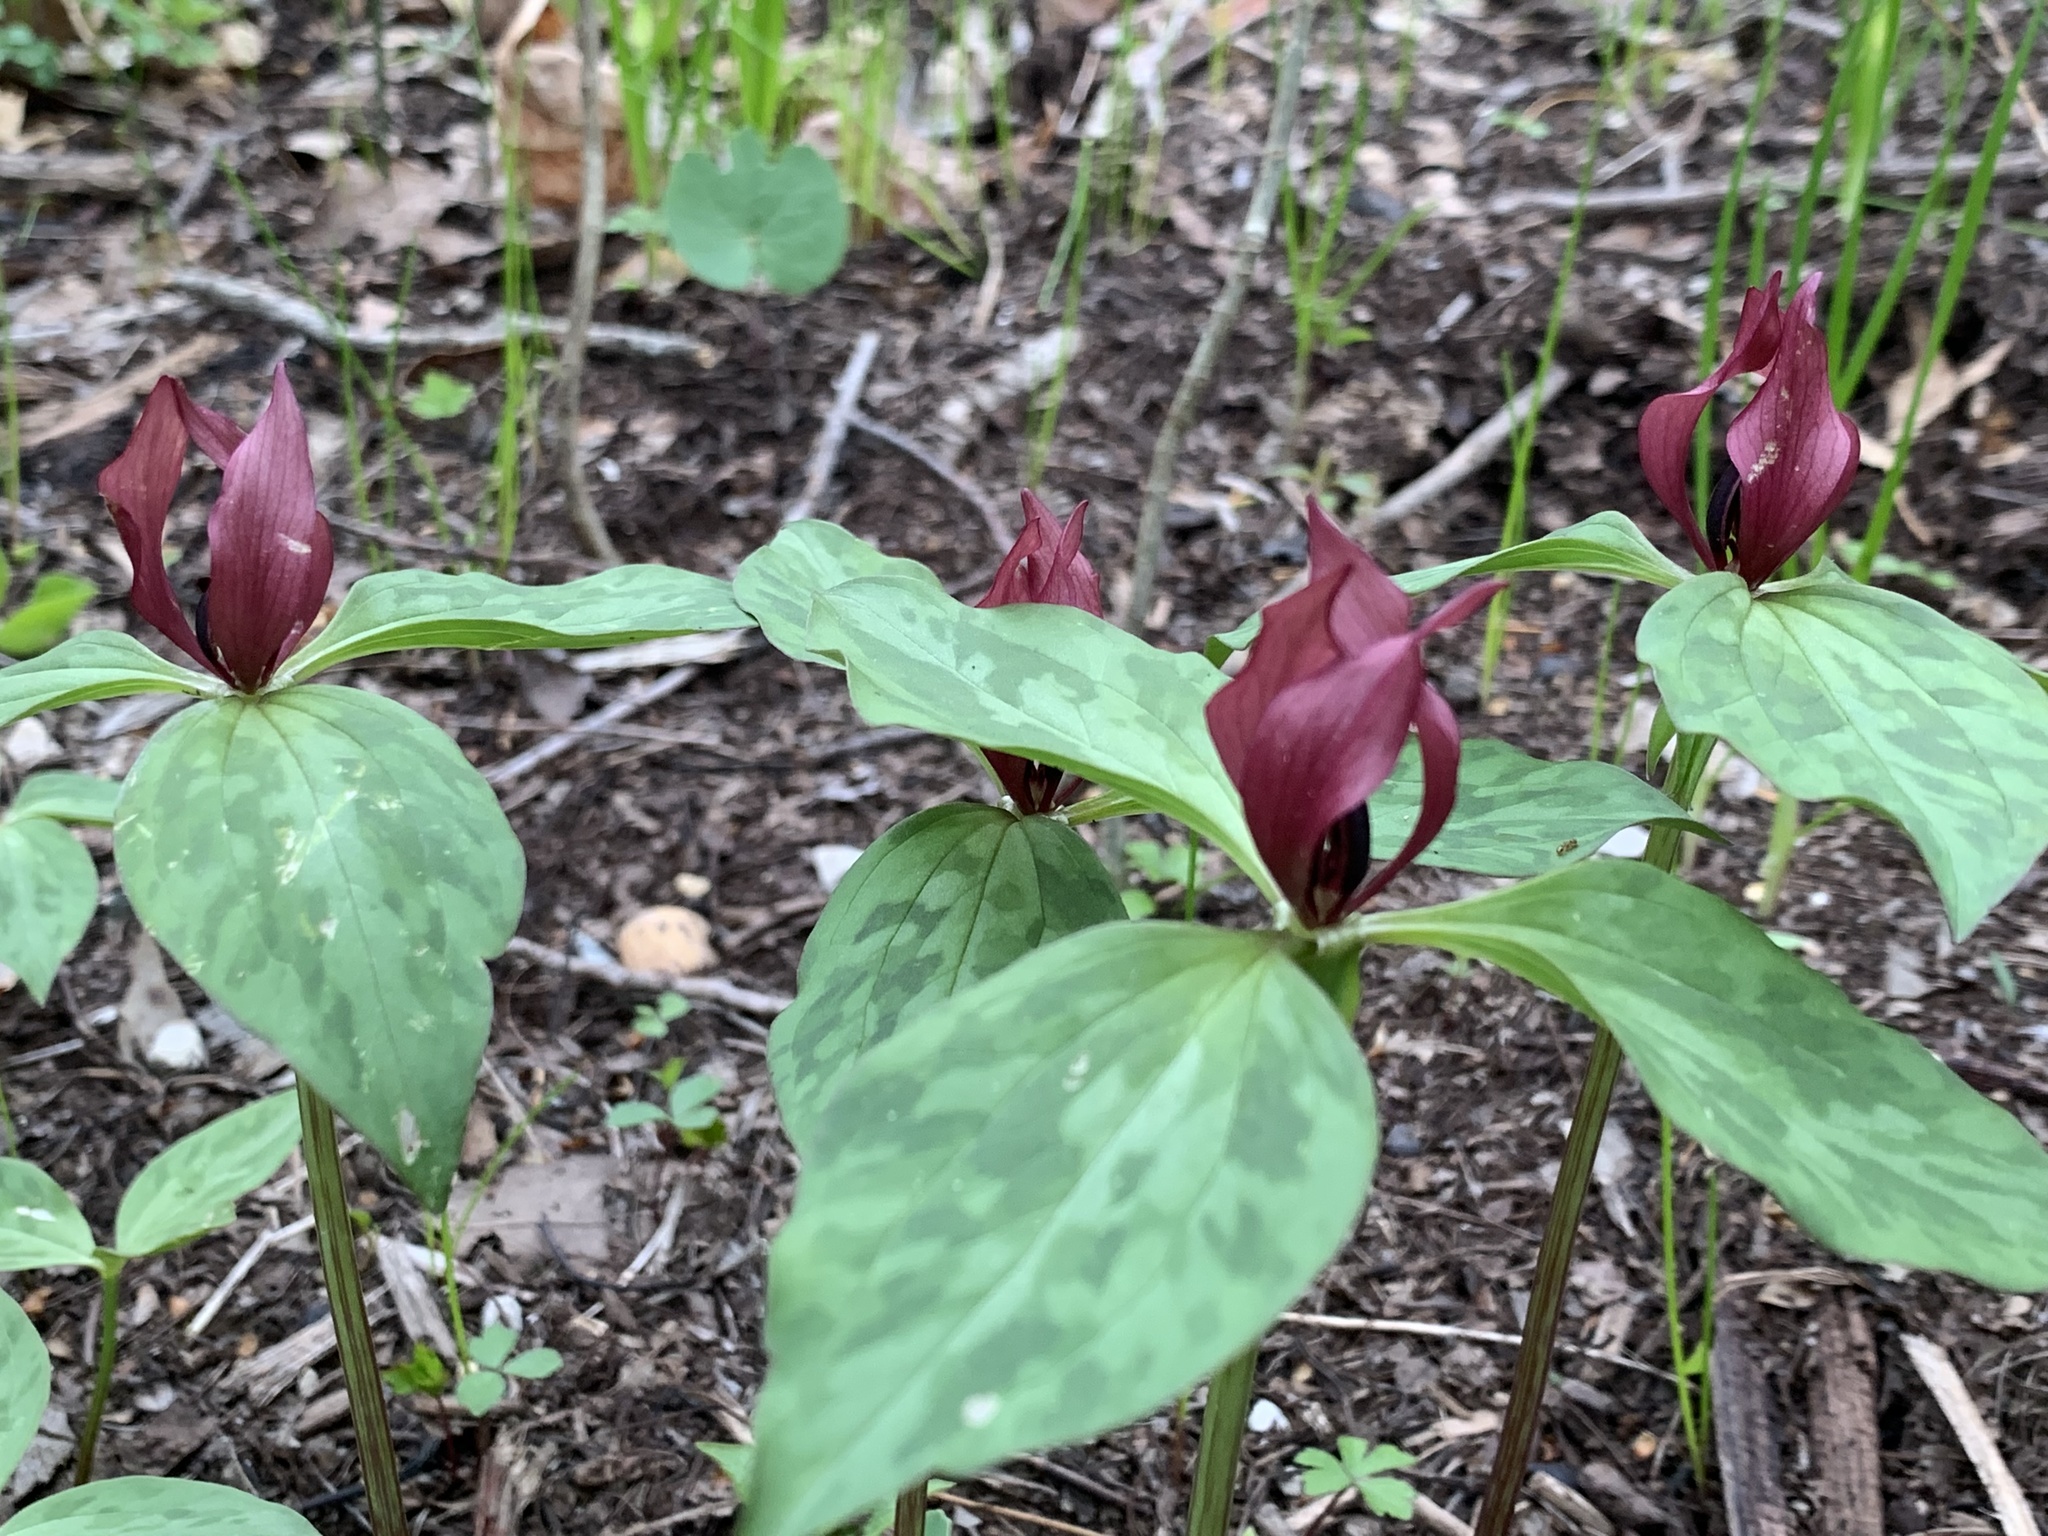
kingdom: Plantae
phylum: Tracheophyta
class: Liliopsida
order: Liliales
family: Melanthiaceae
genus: Trillium
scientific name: Trillium recurvatum
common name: Bloody butcher
